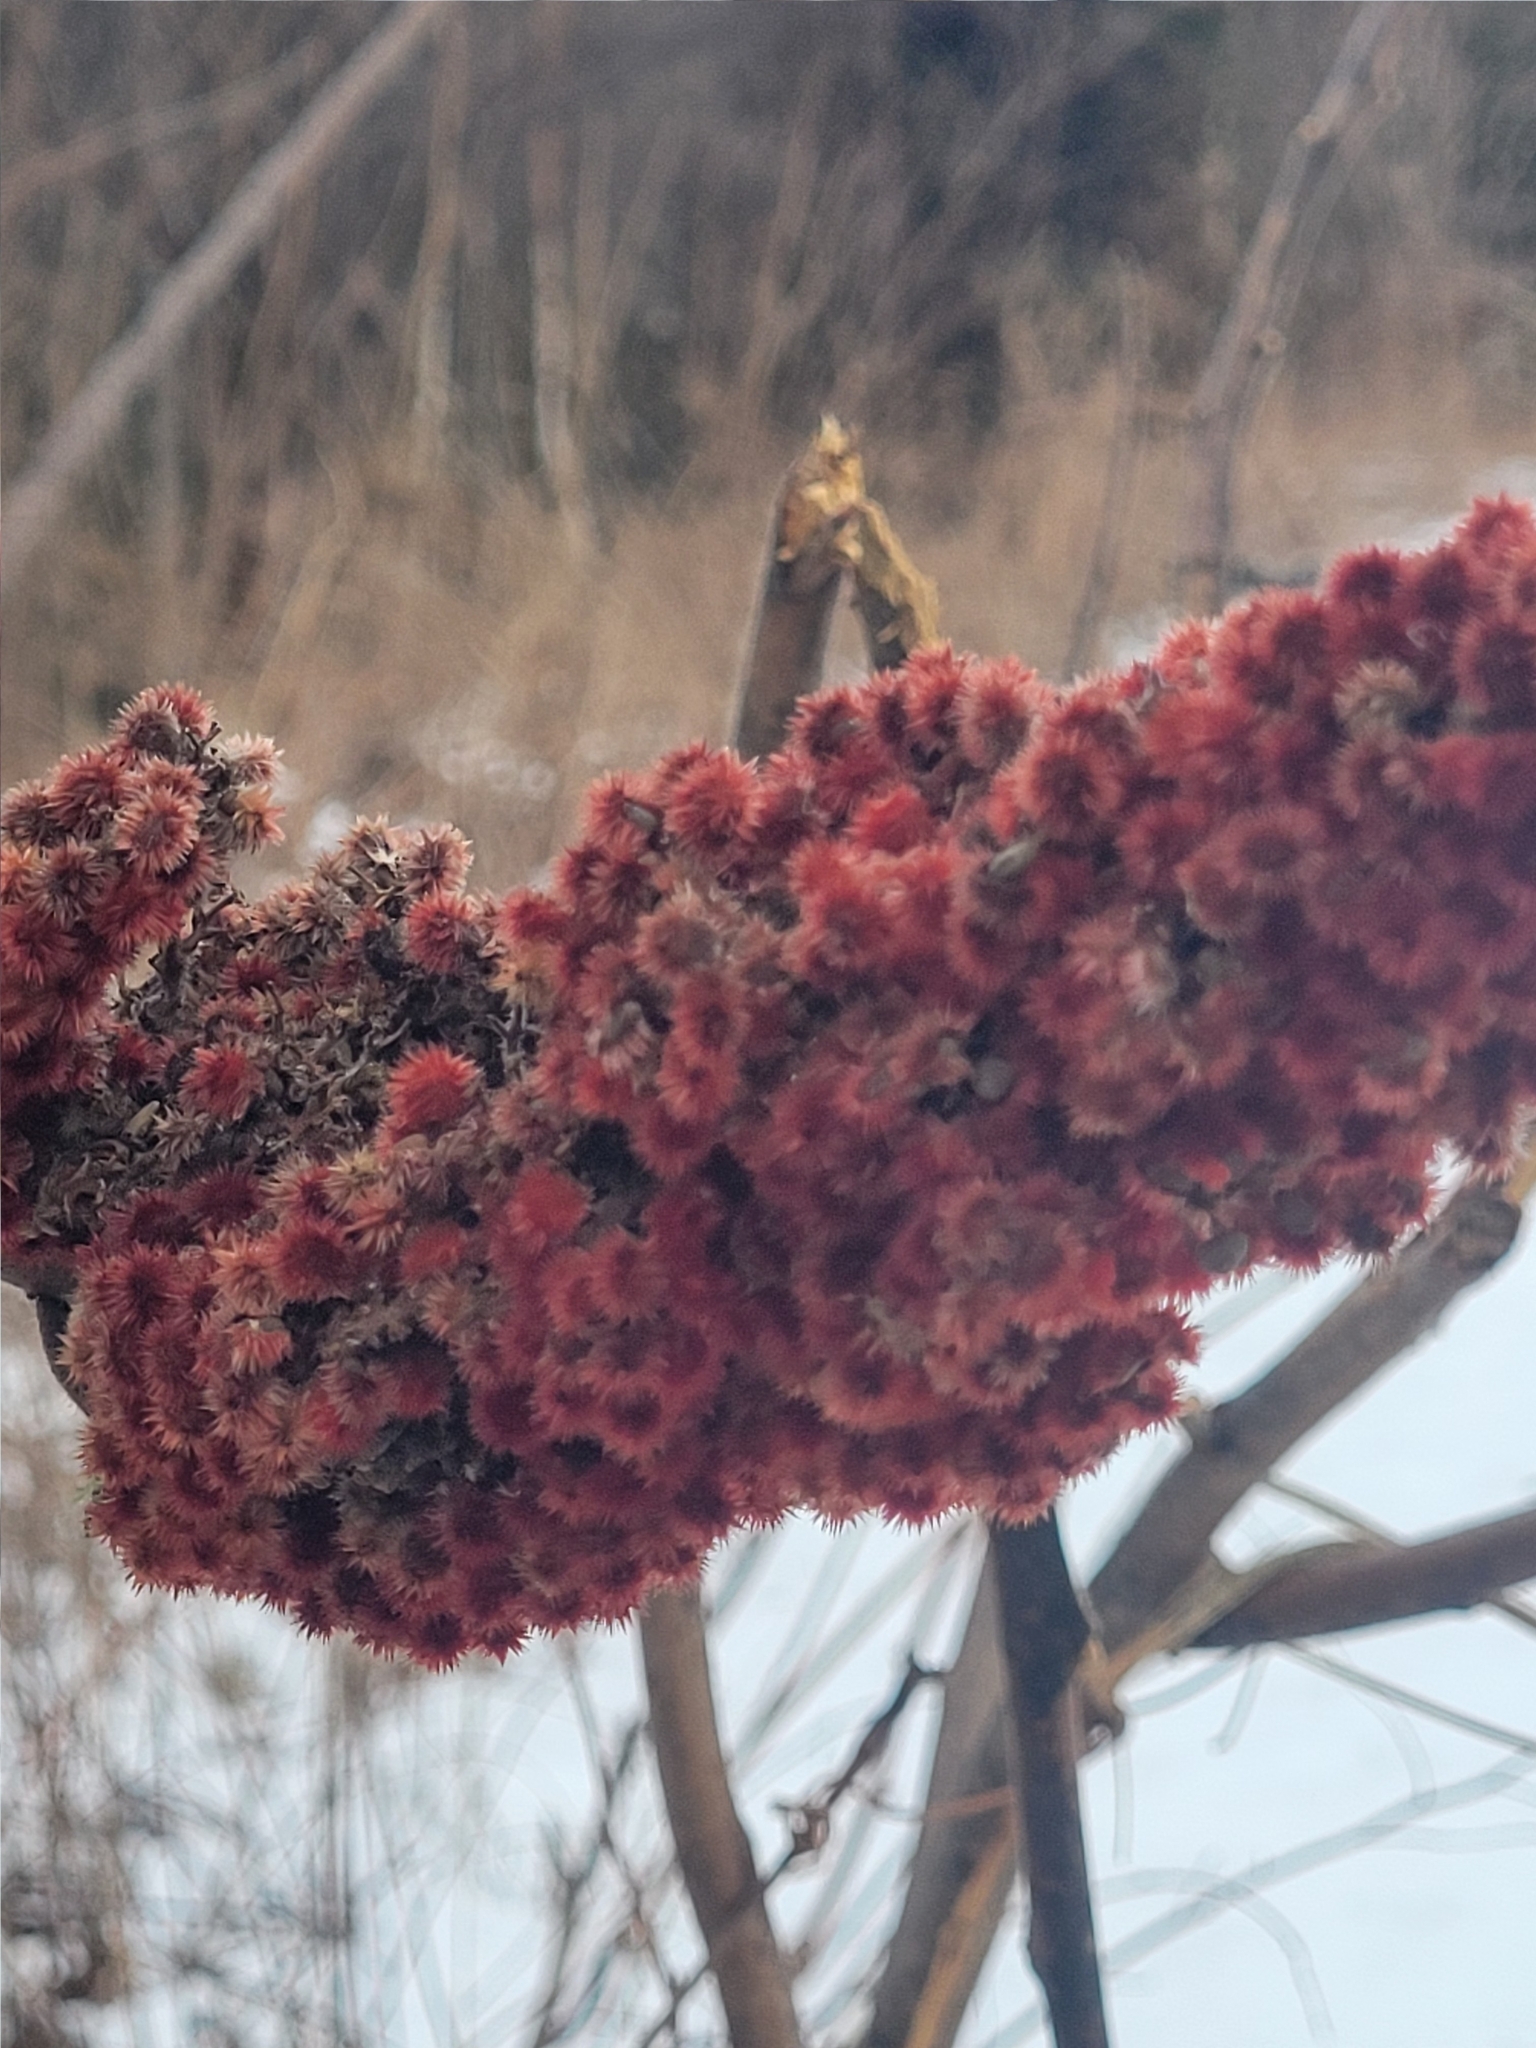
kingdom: Plantae
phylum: Tracheophyta
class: Magnoliopsida
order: Sapindales
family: Anacardiaceae
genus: Rhus
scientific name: Rhus typhina
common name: Staghorn sumac
